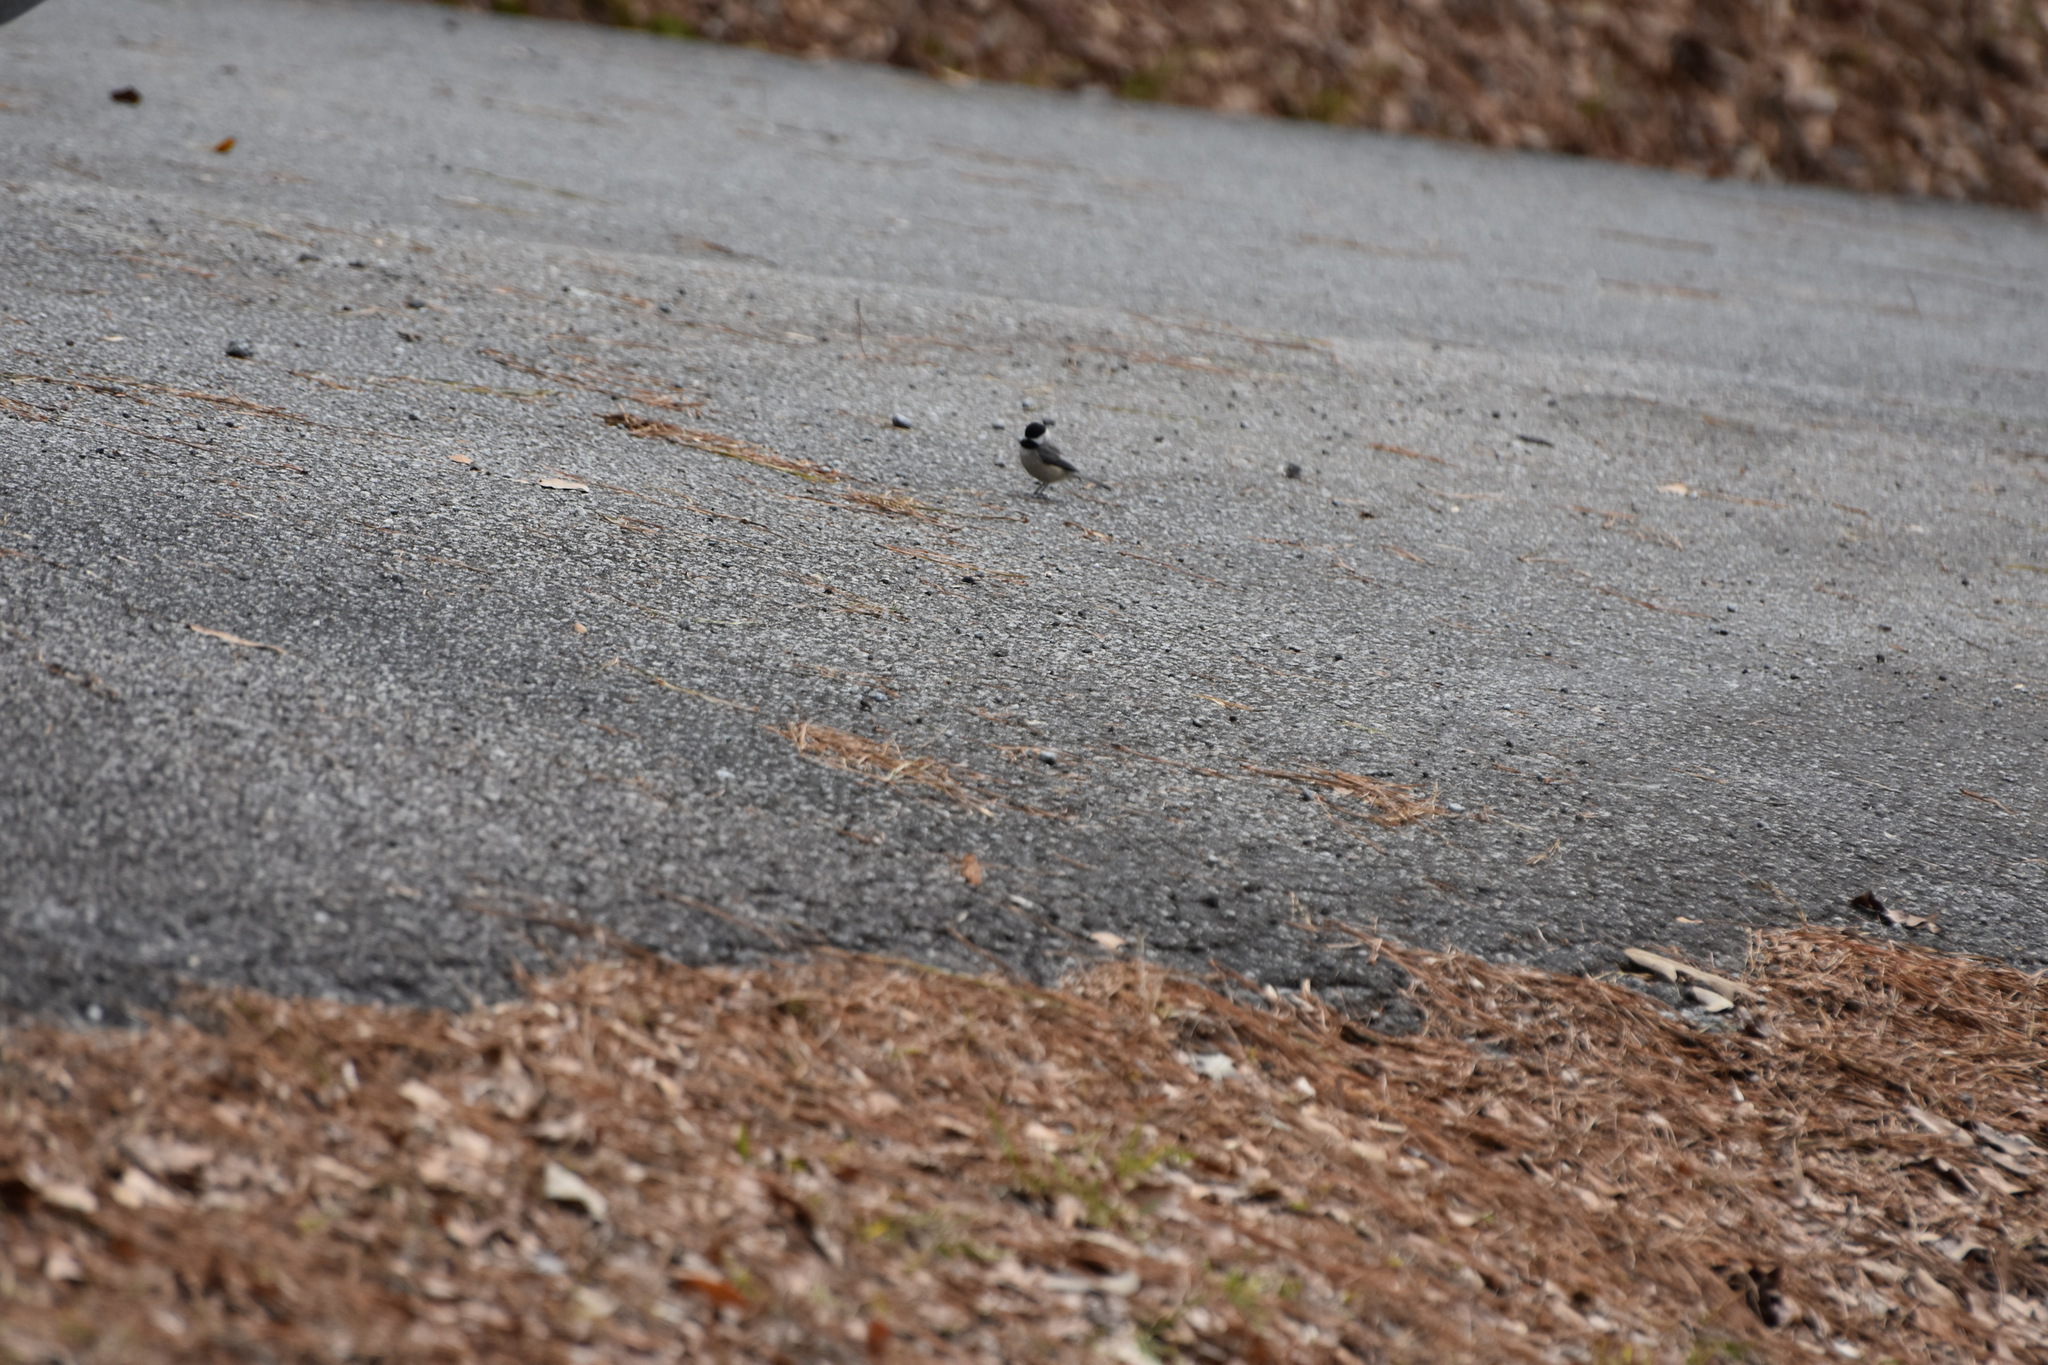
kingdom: Animalia
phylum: Chordata
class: Aves
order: Passeriformes
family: Paridae
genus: Poecile
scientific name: Poecile carolinensis
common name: Carolina chickadee
